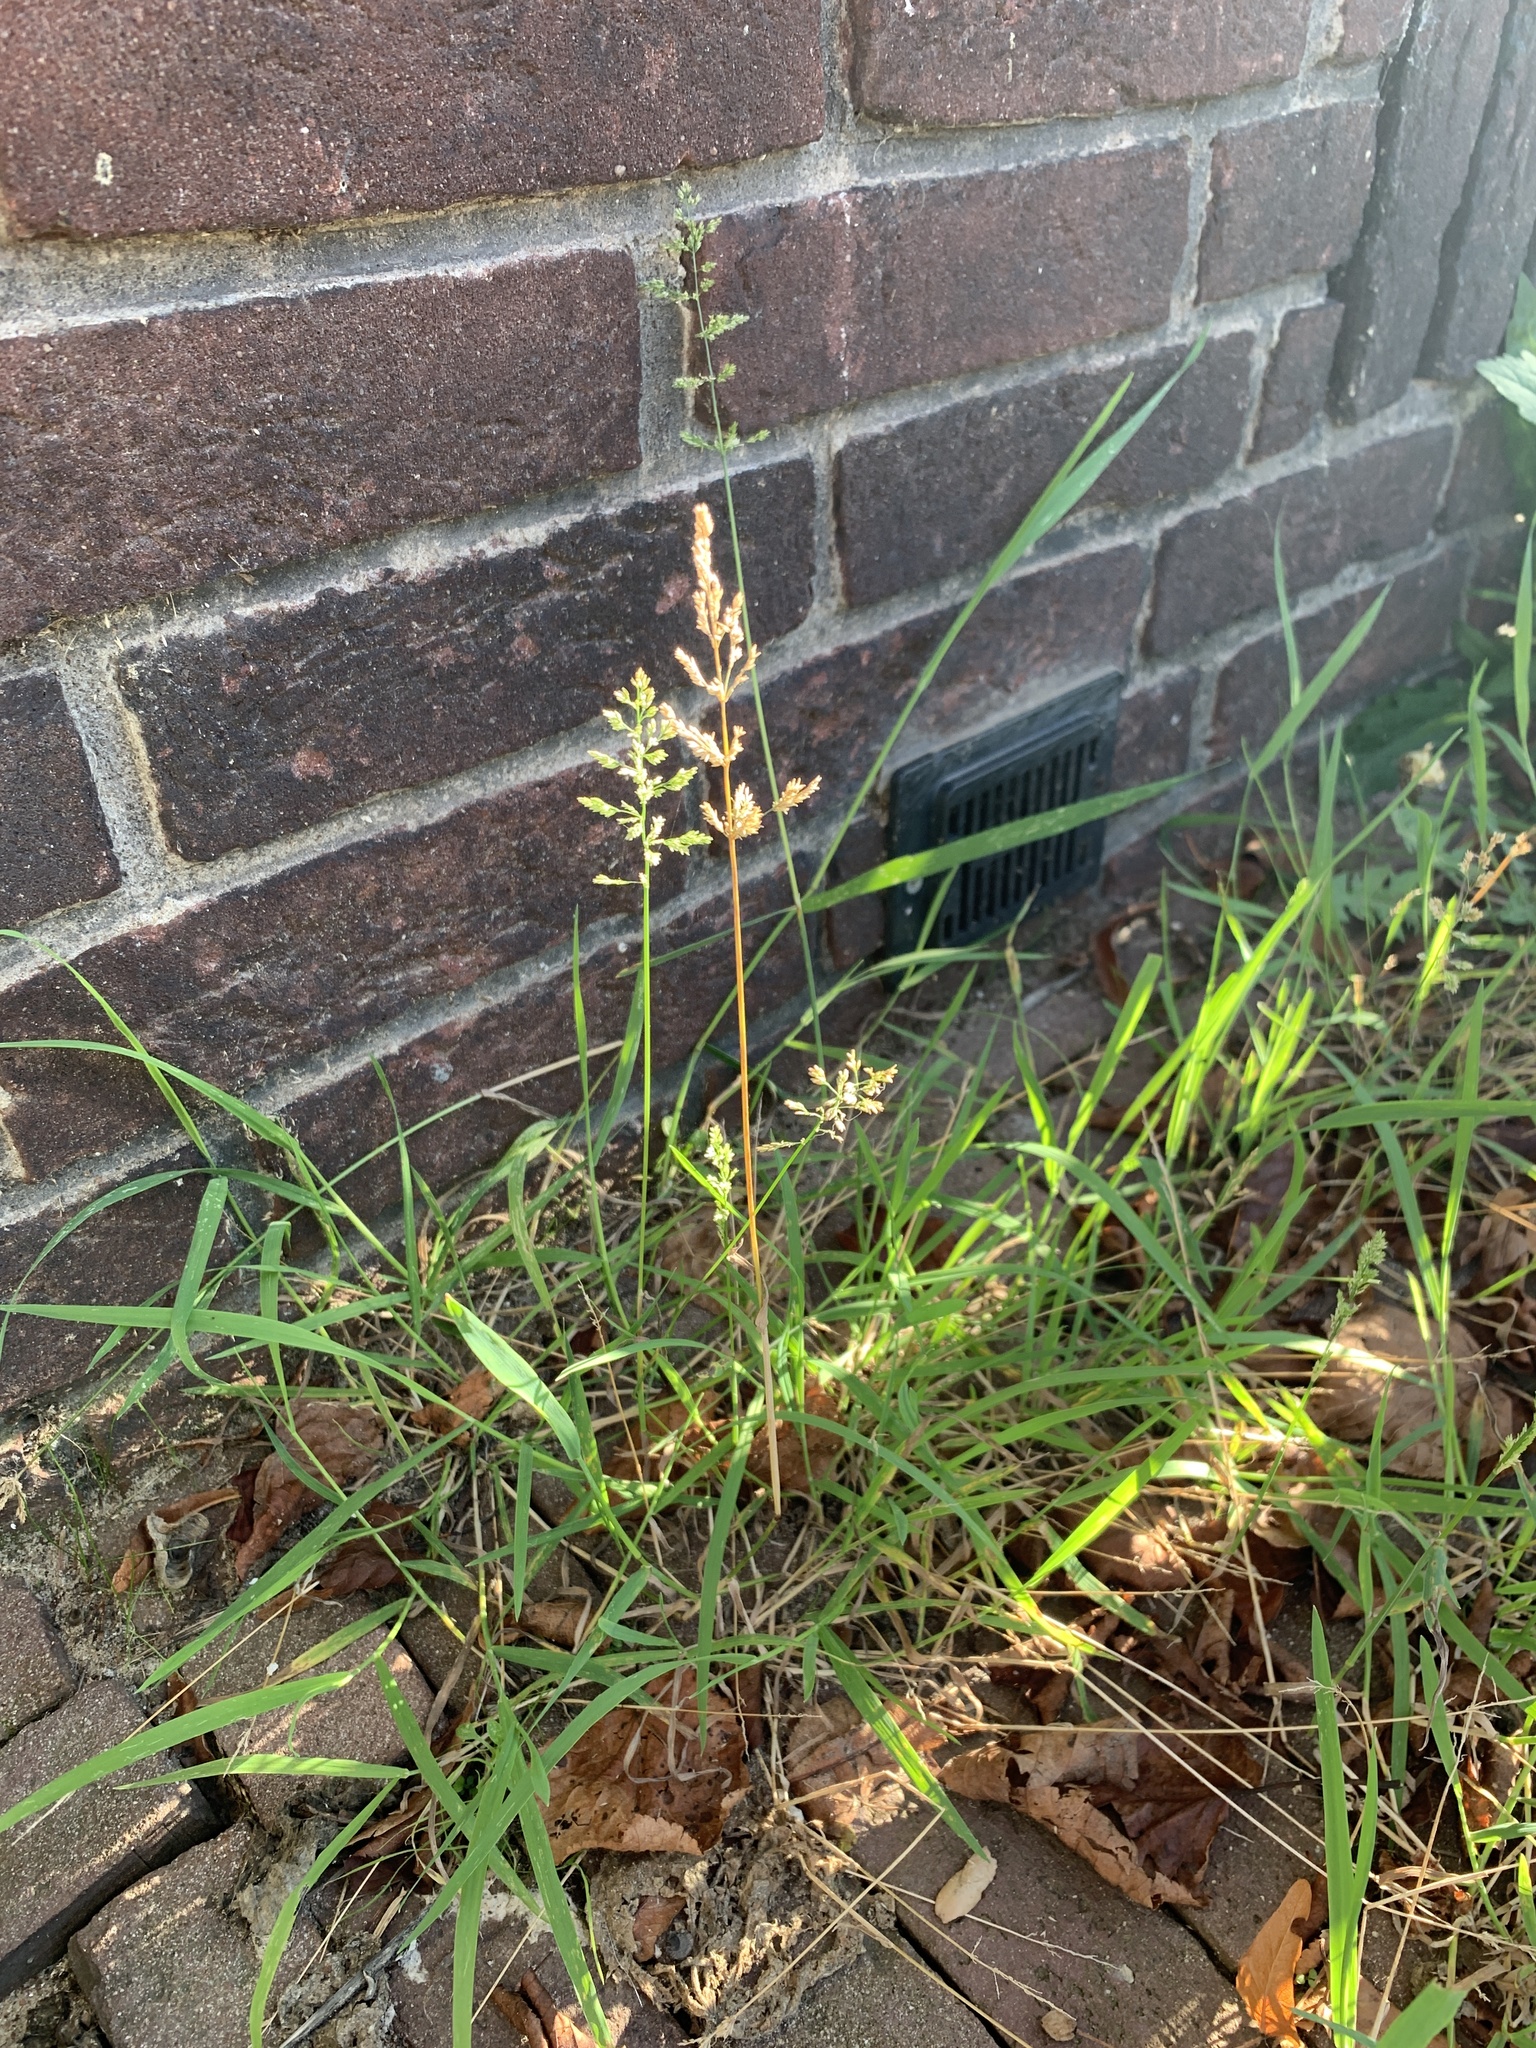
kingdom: Plantae
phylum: Tracheophyta
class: Liliopsida
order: Poales
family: Poaceae
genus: Poa
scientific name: Poa annua
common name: Annual bluegrass
